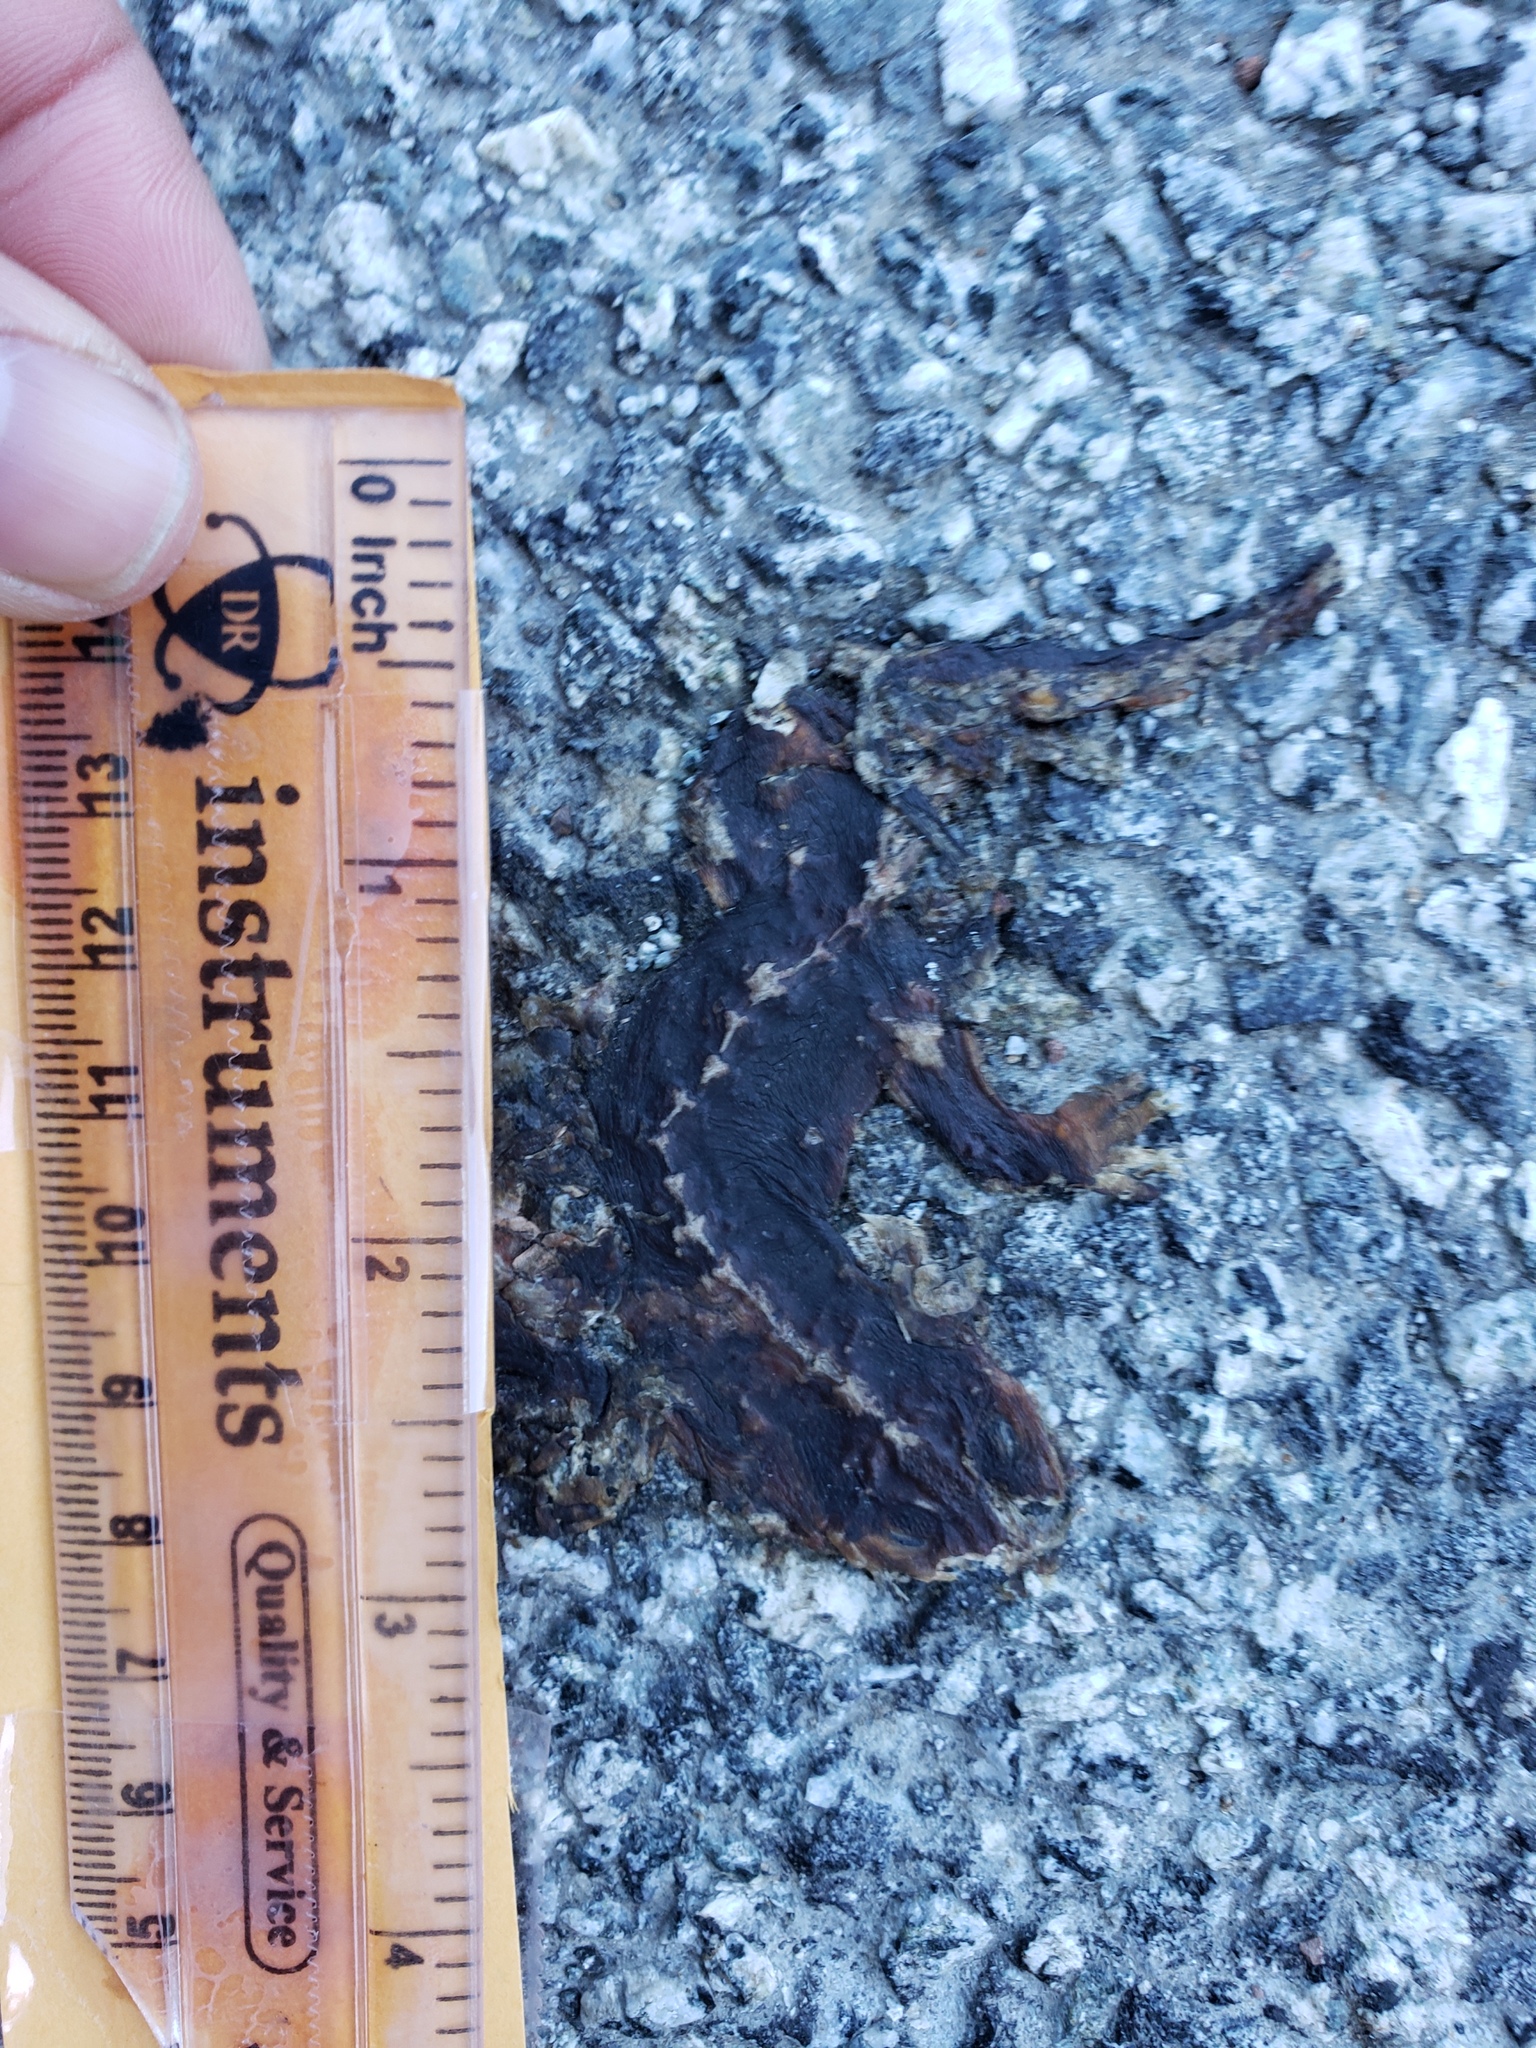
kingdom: Animalia
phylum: Chordata
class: Amphibia
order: Caudata
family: Salamandridae
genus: Taricha
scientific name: Taricha
